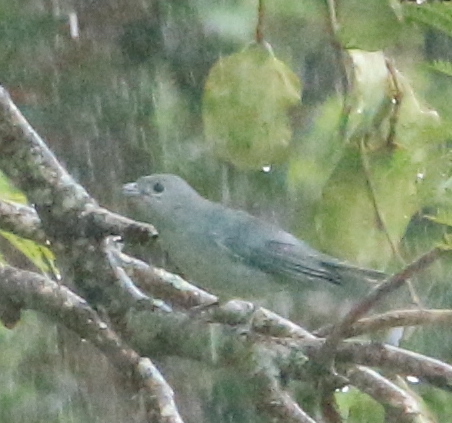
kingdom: Animalia
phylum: Chordata
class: Aves
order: Passeriformes
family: Thraupidae
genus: Thraupis
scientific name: Thraupis sayaca
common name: Sayaca tanager
